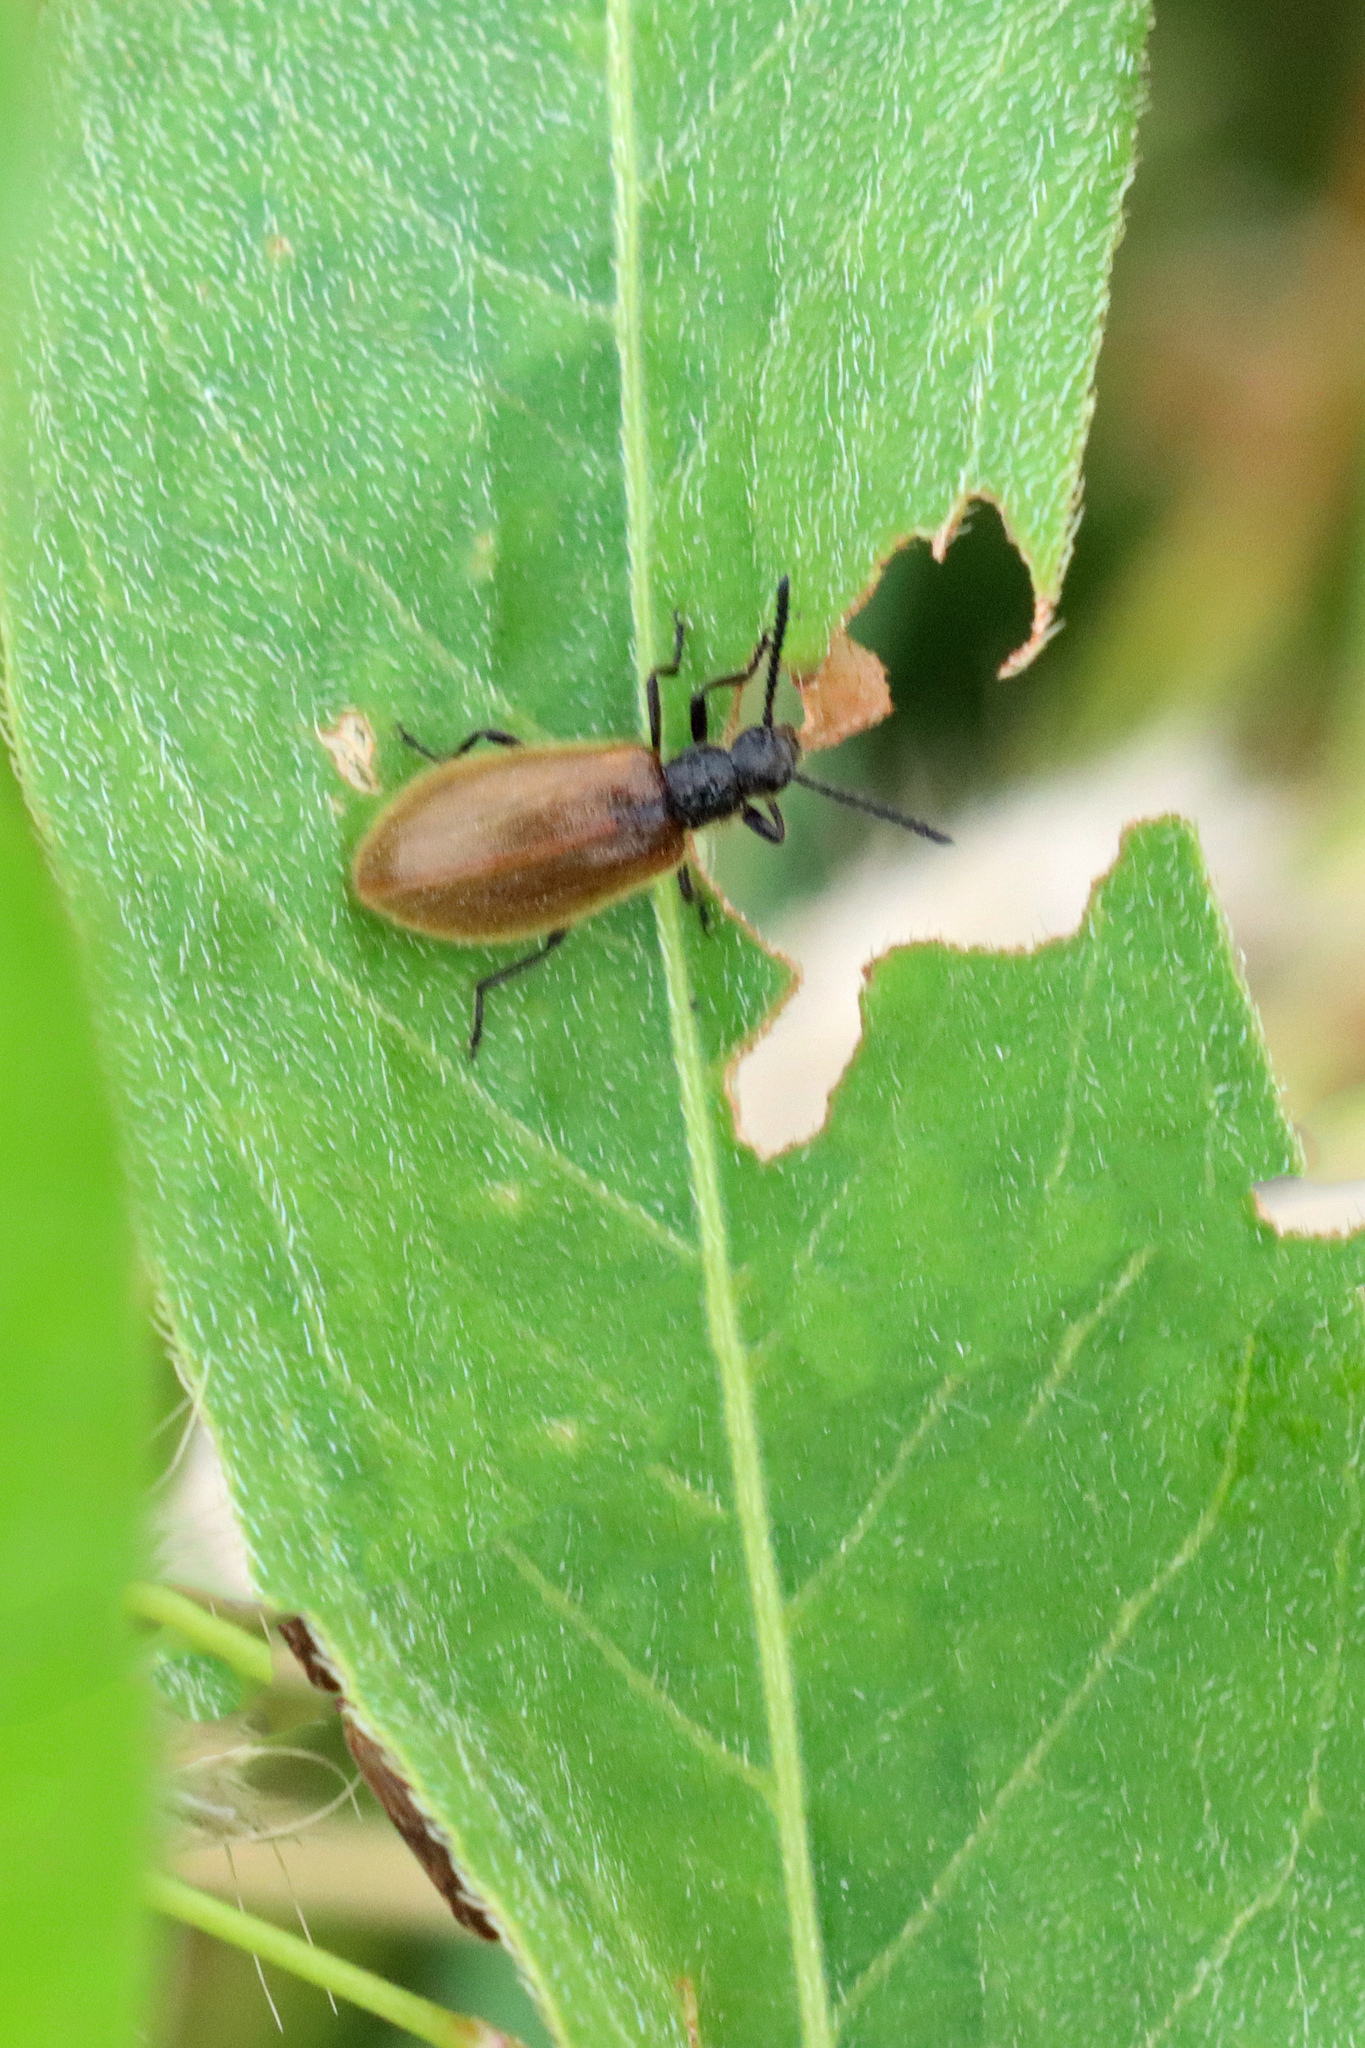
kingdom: Animalia
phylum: Arthropoda
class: Insecta
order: Coleoptera
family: Tenebrionidae
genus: Lagria
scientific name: Lagria hirta
